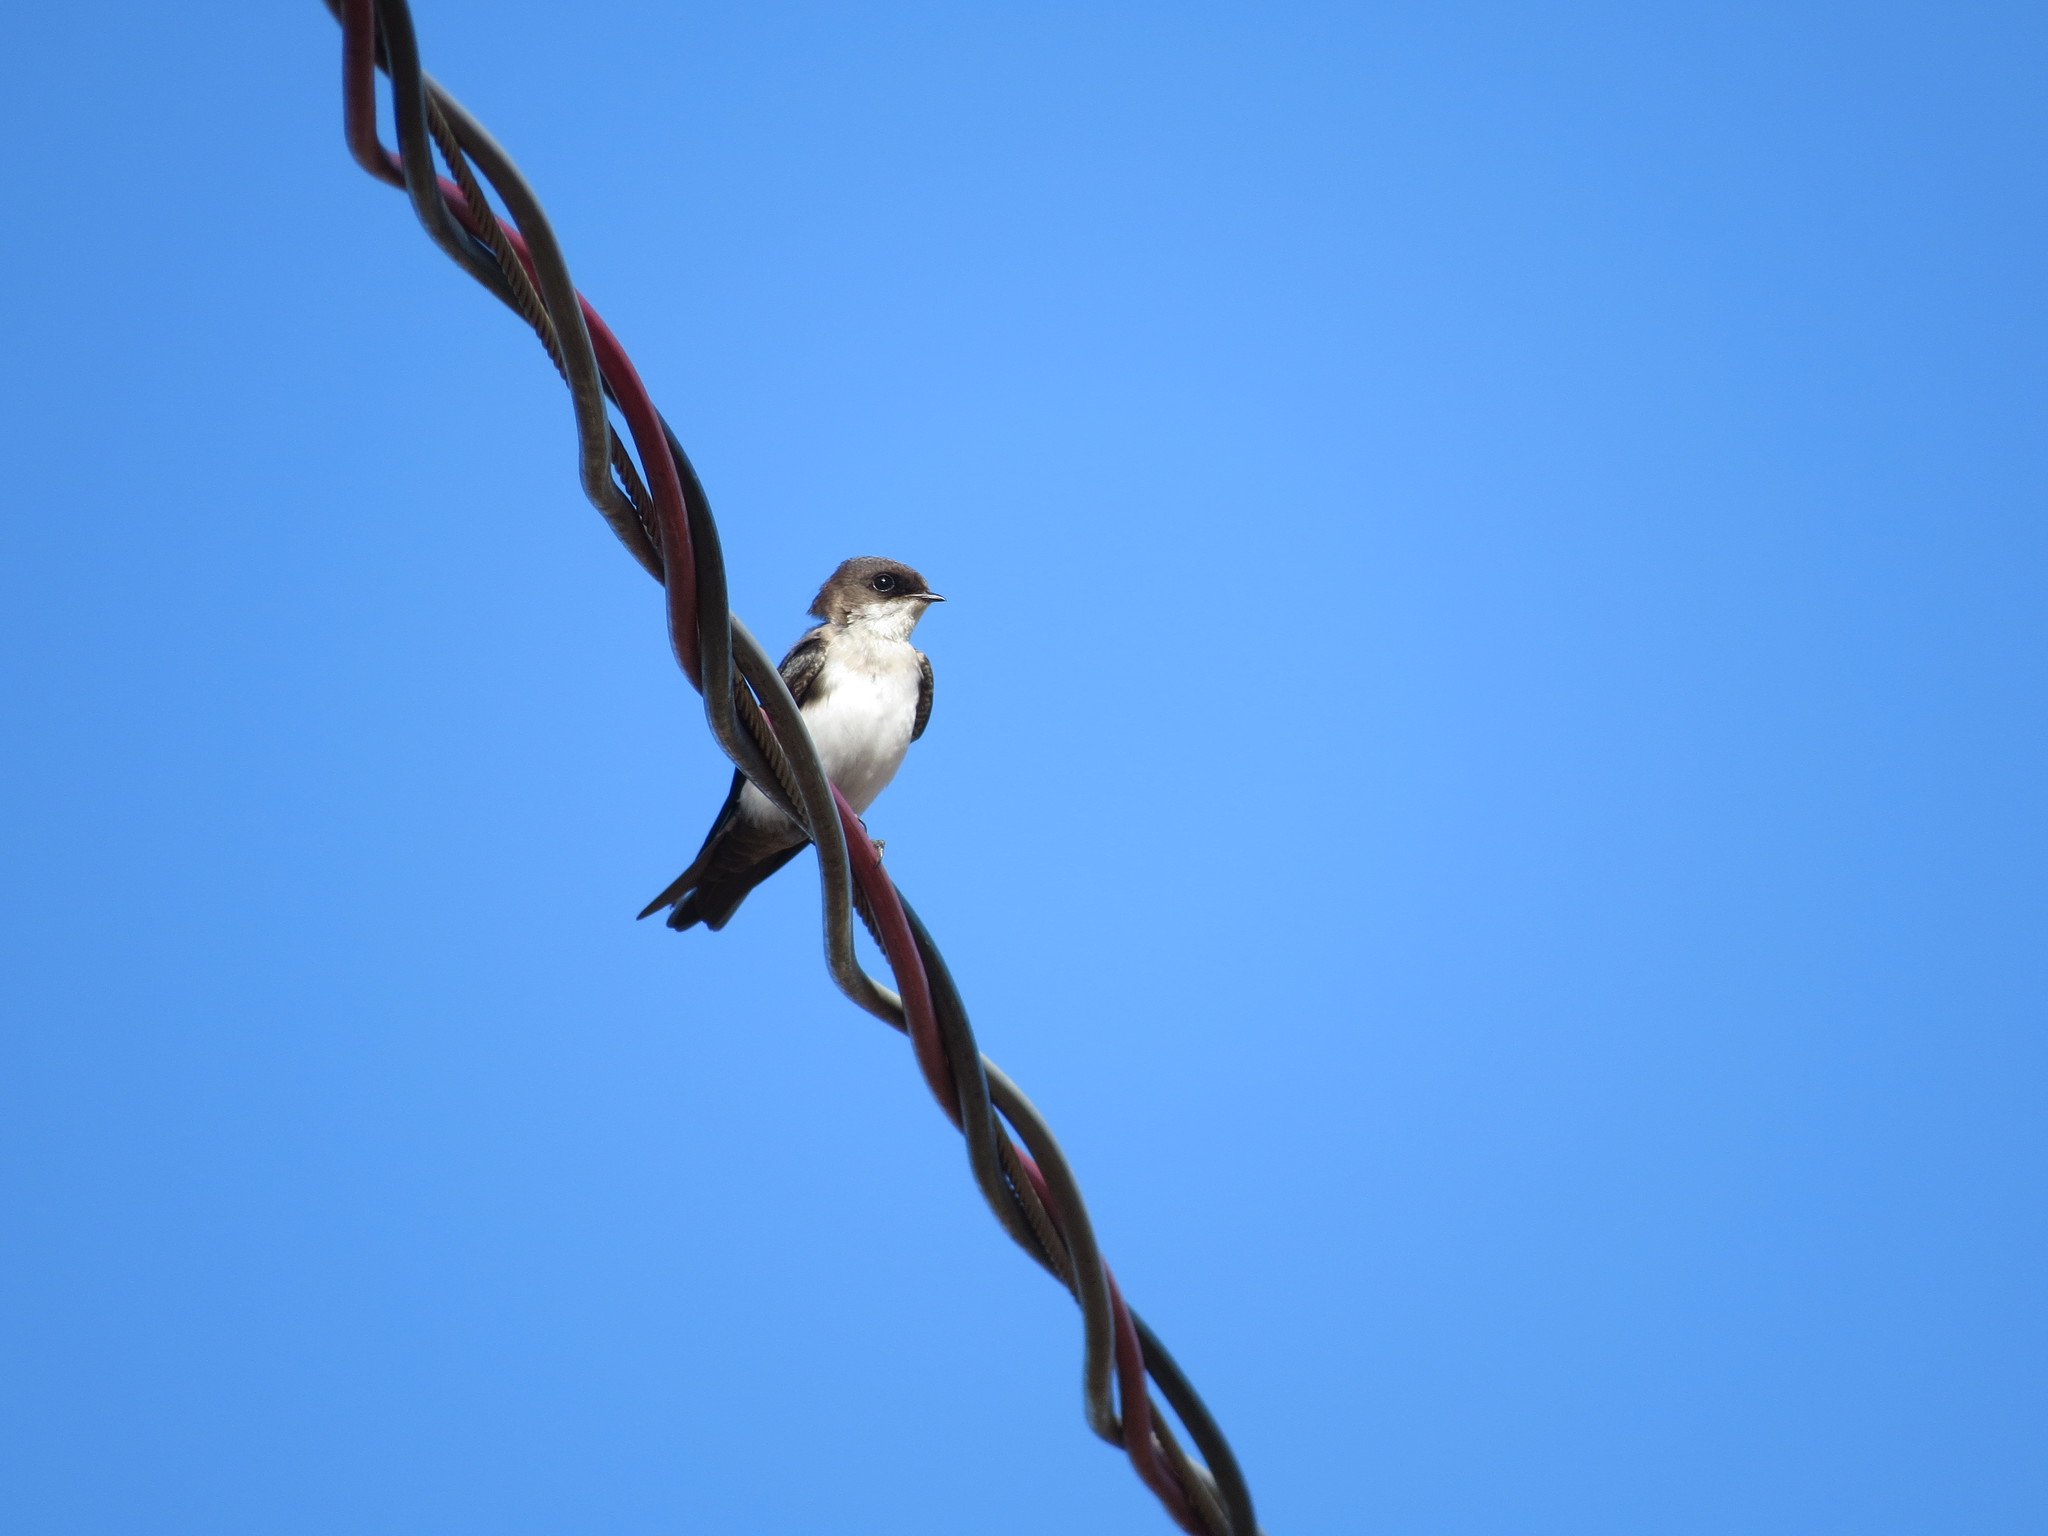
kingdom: Animalia
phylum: Chordata
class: Aves
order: Passeriformes
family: Hirundinidae
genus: Notiochelidon
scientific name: Notiochelidon cyanoleuca
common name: Blue-and-white swallow
